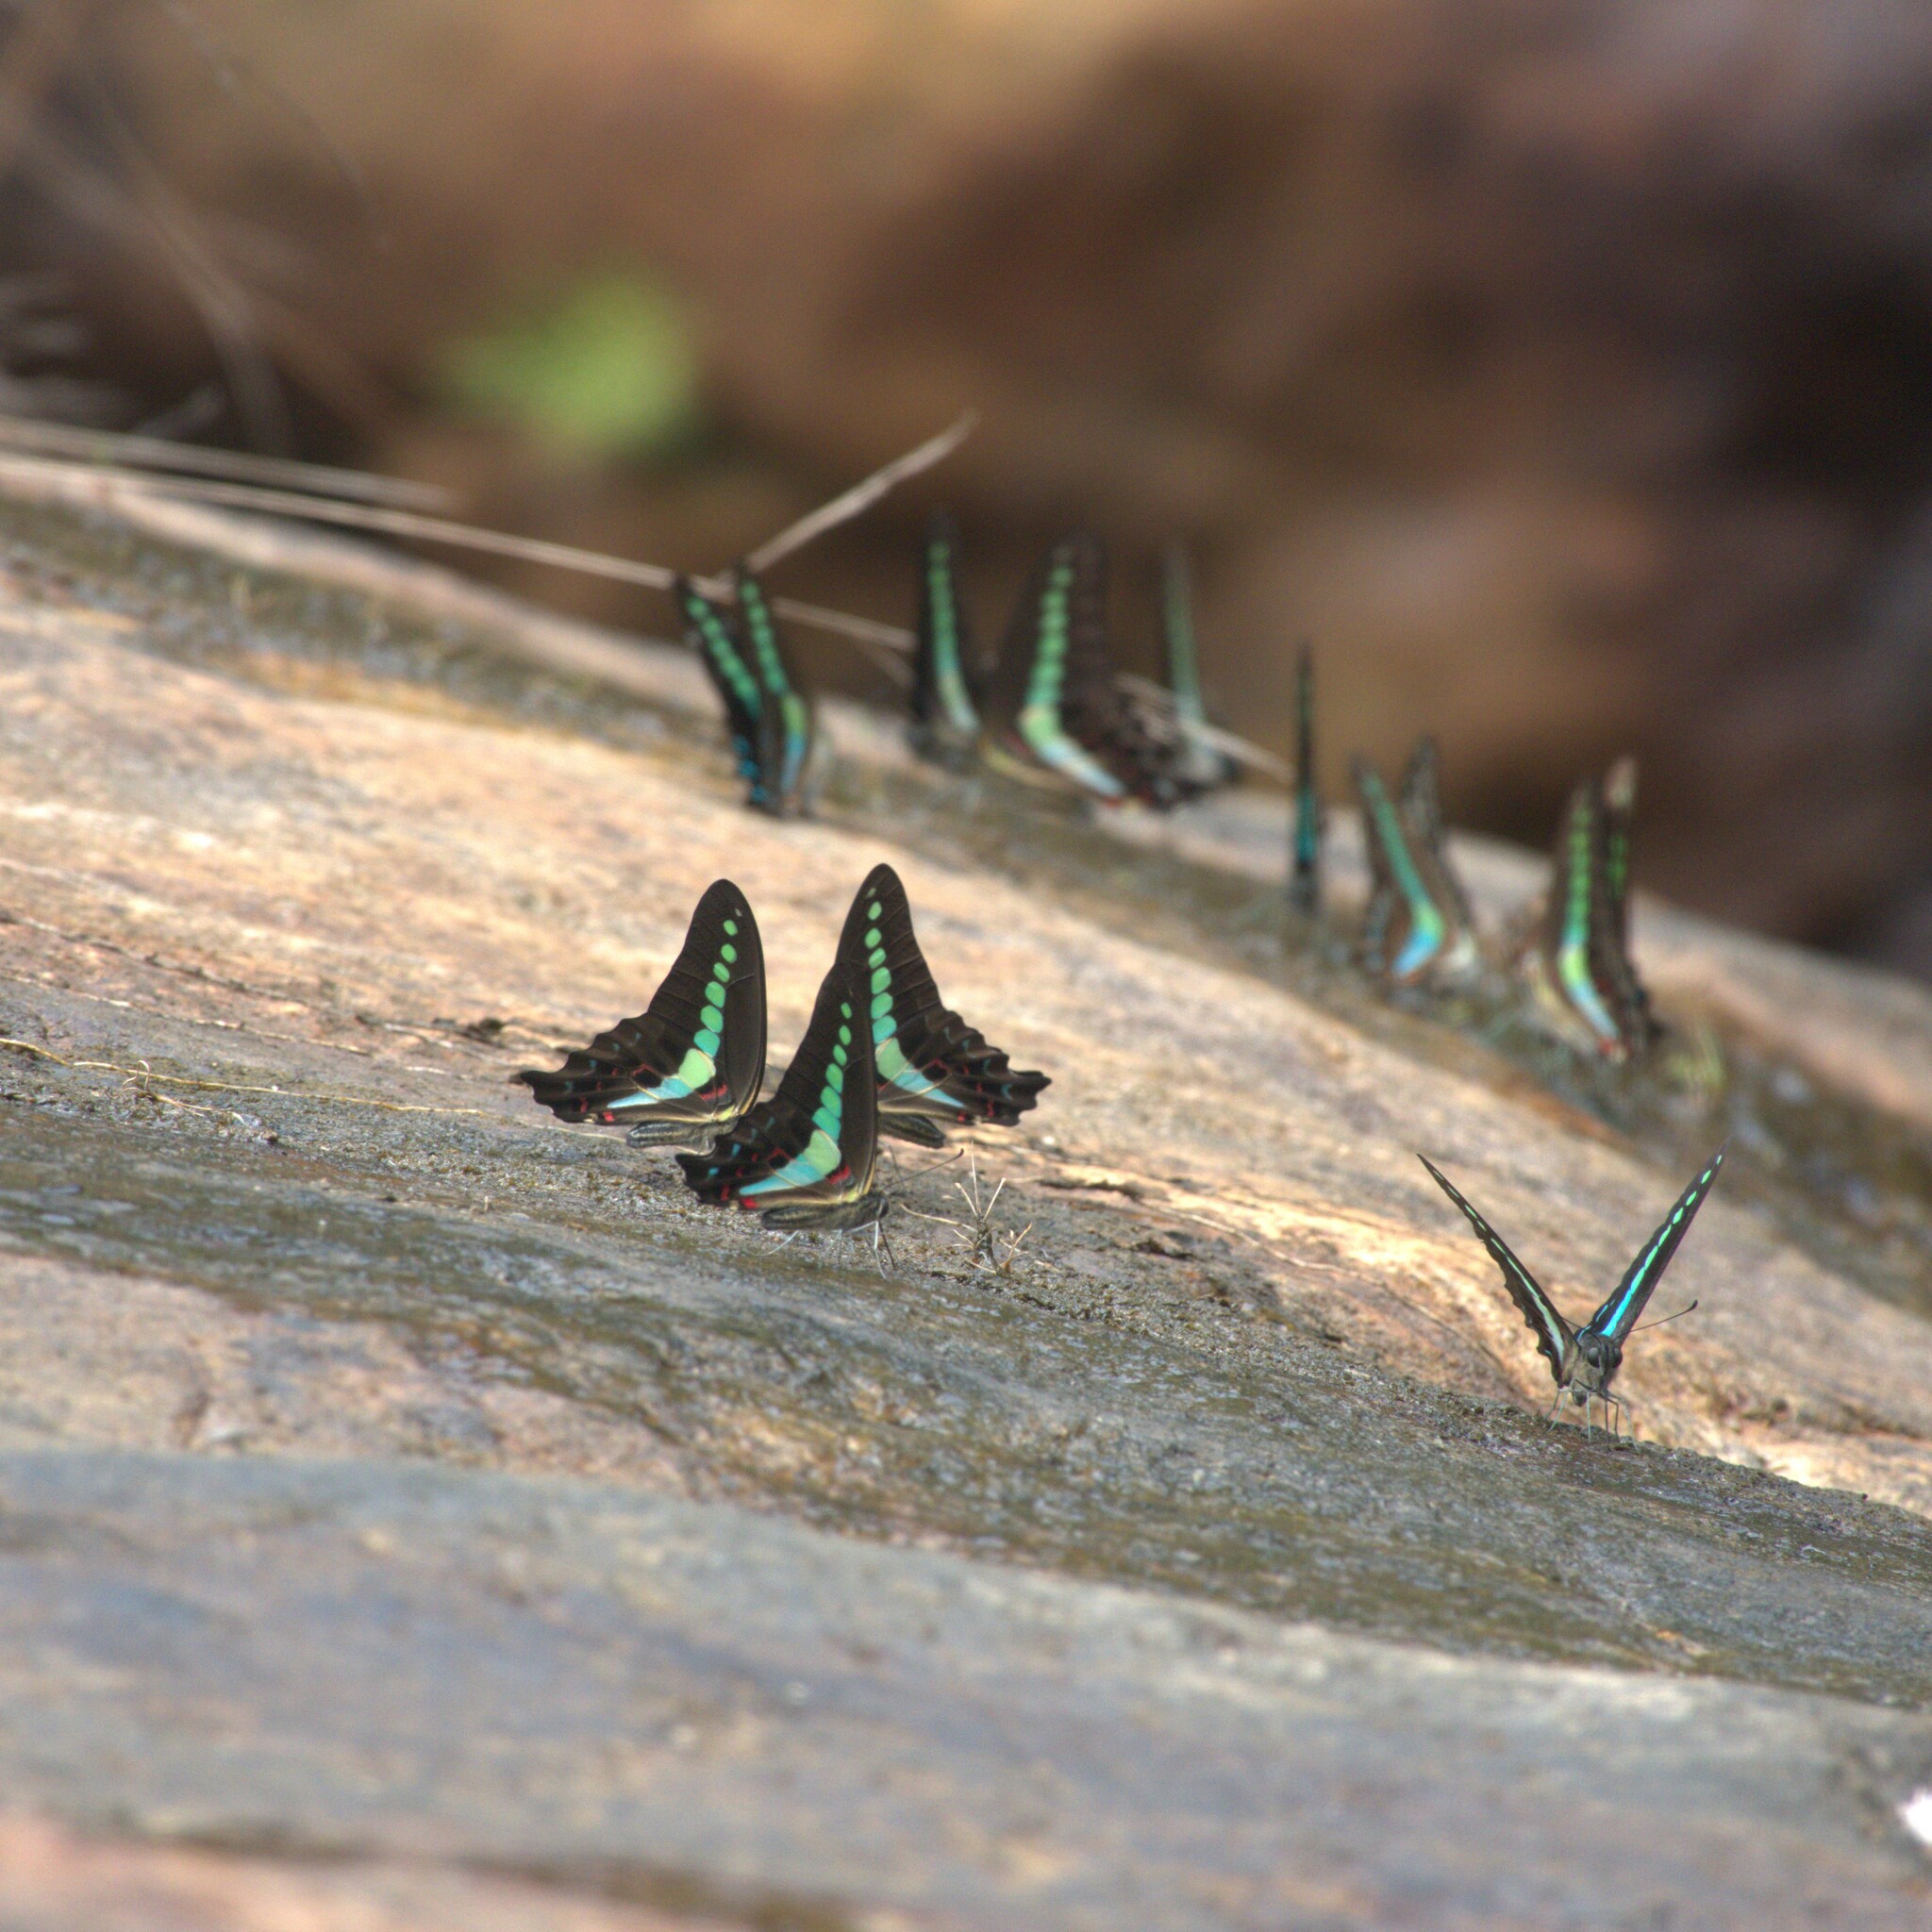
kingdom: Animalia
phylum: Arthropoda
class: Insecta
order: Lepidoptera
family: Papilionidae
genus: Graphium
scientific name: Graphium
